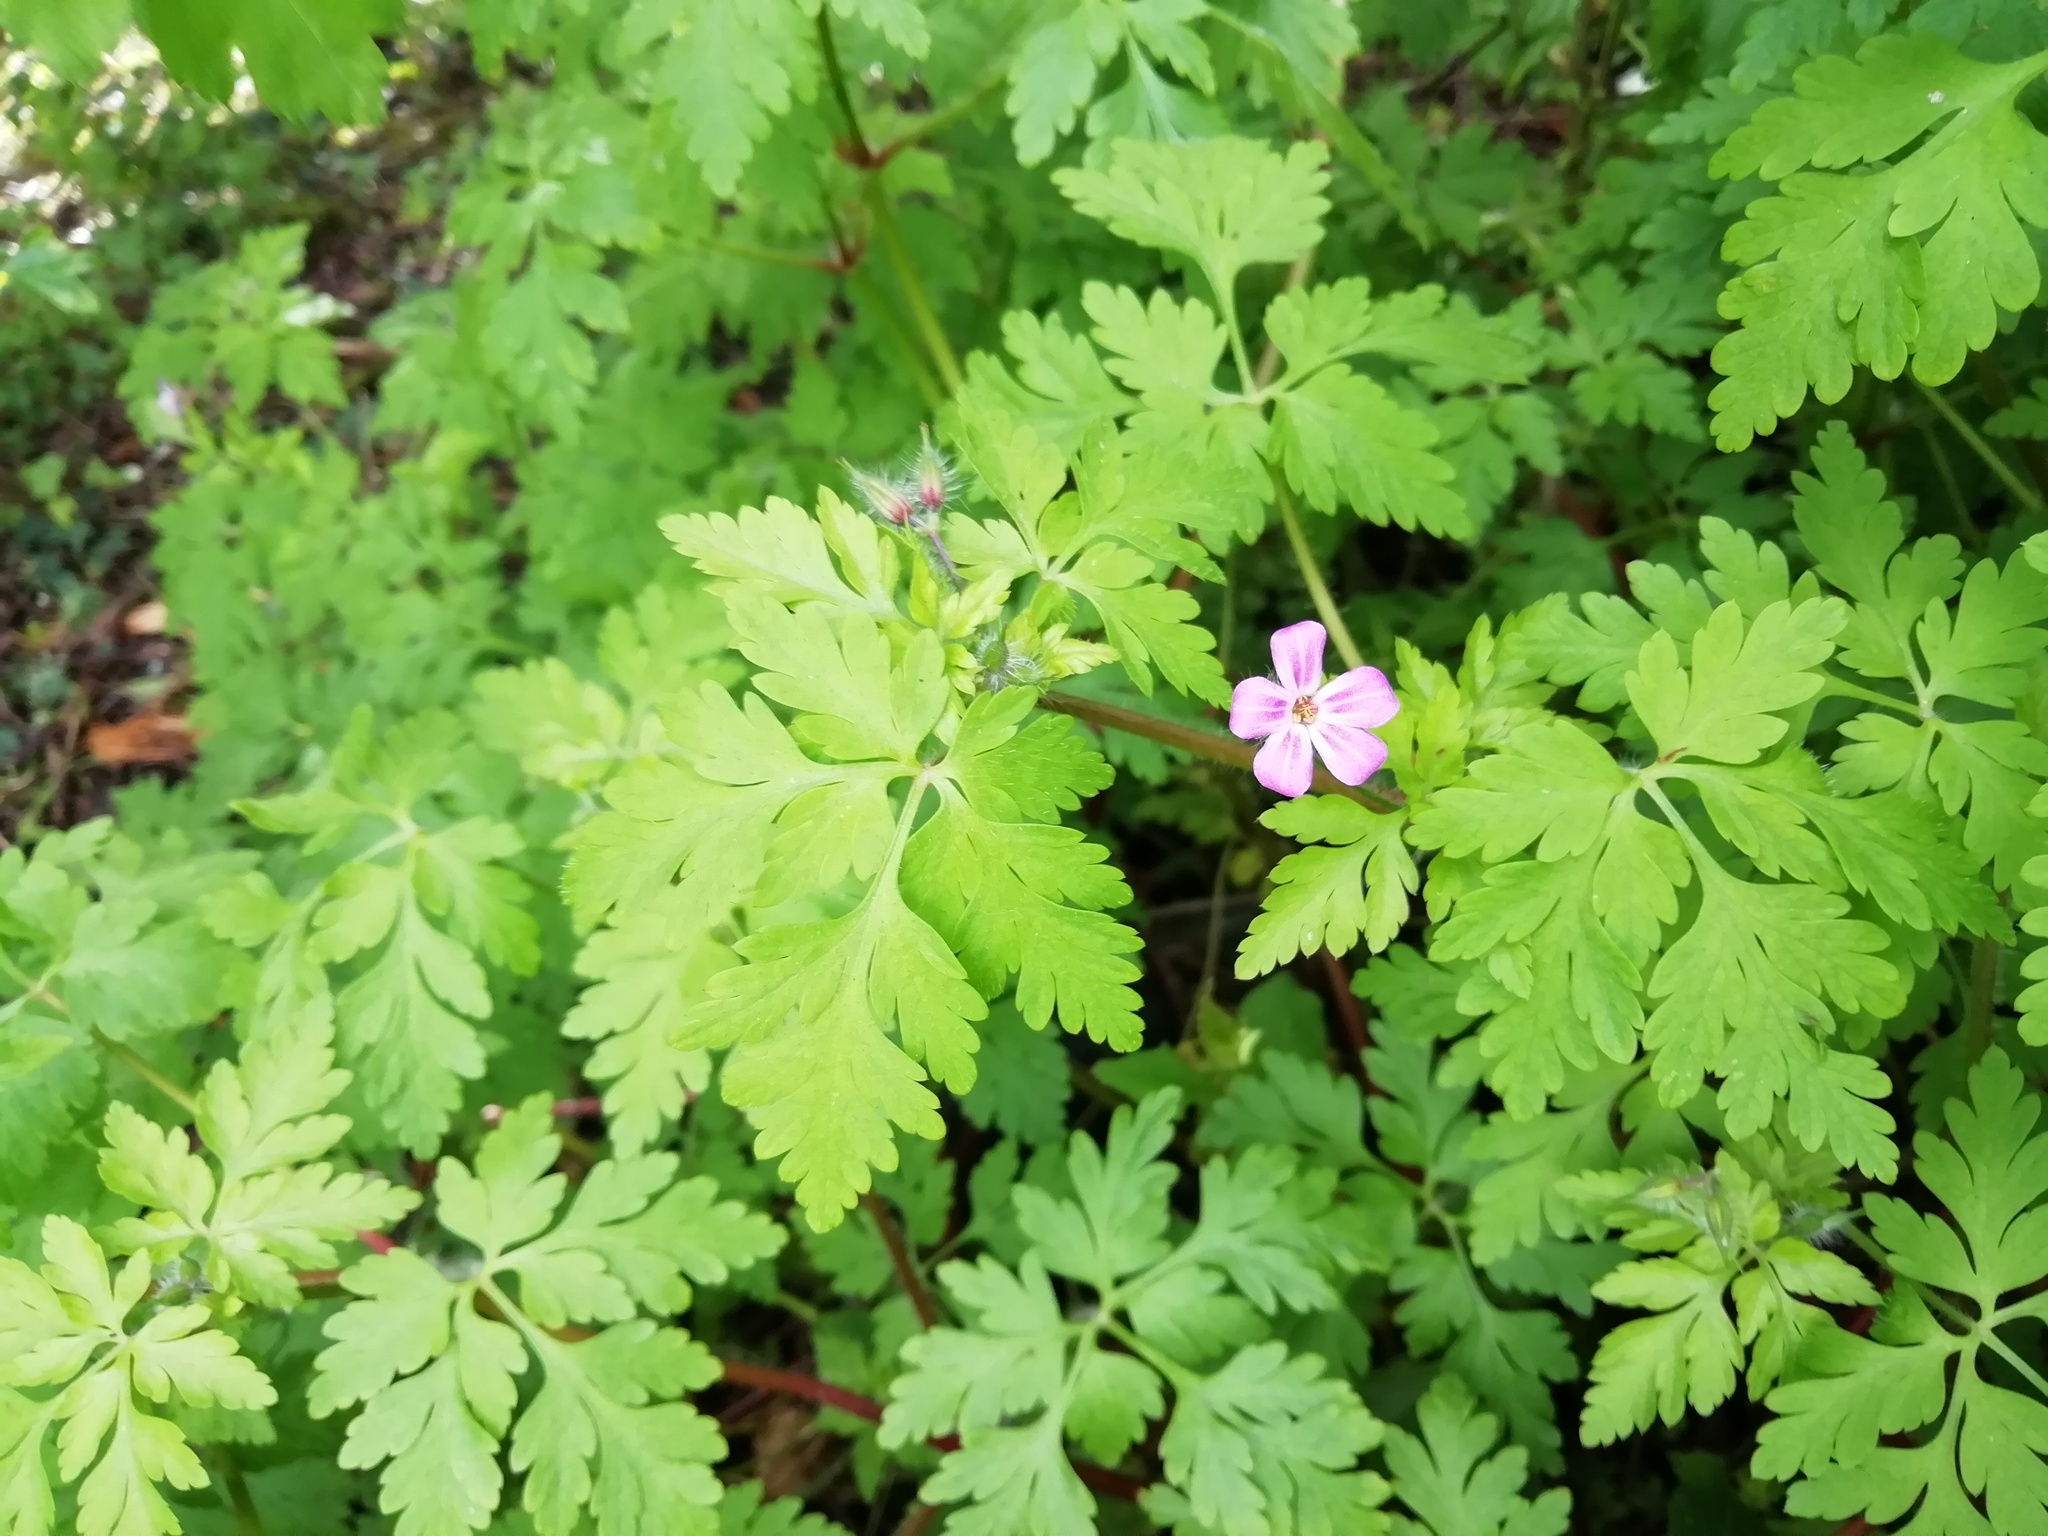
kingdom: Plantae
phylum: Tracheophyta
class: Magnoliopsida
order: Geraniales
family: Geraniaceae
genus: Geranium
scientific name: Geranium robertianum
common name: Herb-robert
